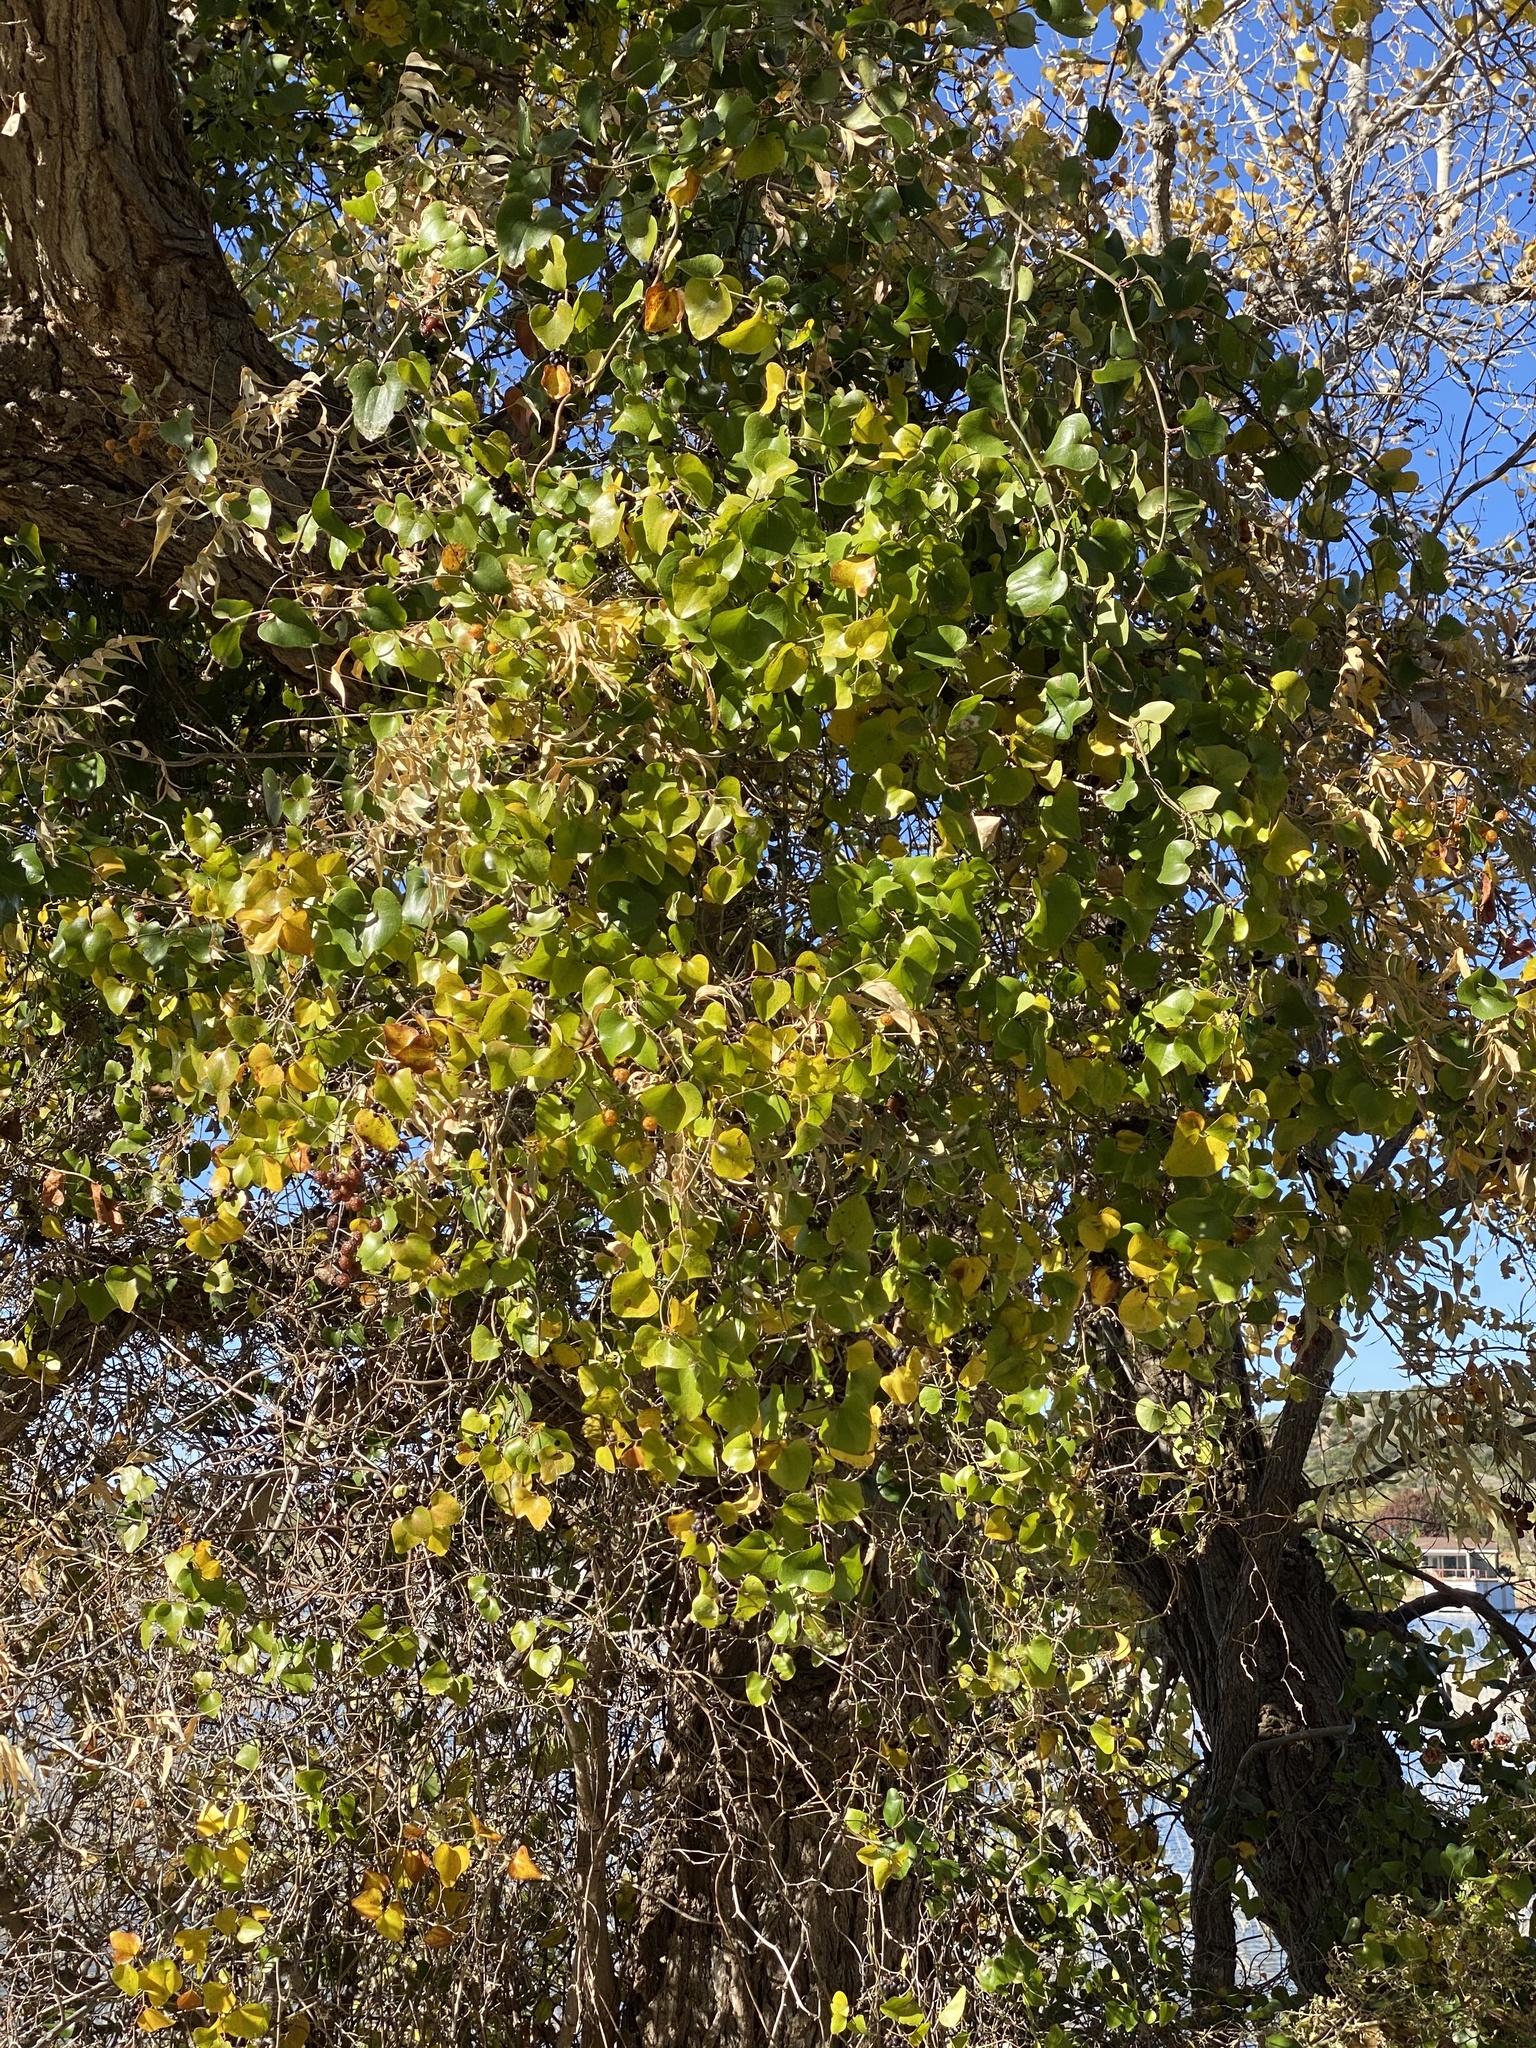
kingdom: Plantae
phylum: Tracheophyta
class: Liliopsida
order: Liliales
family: Smilacaceae
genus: Smilax
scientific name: Smilax bona-nox
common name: Catbrier
